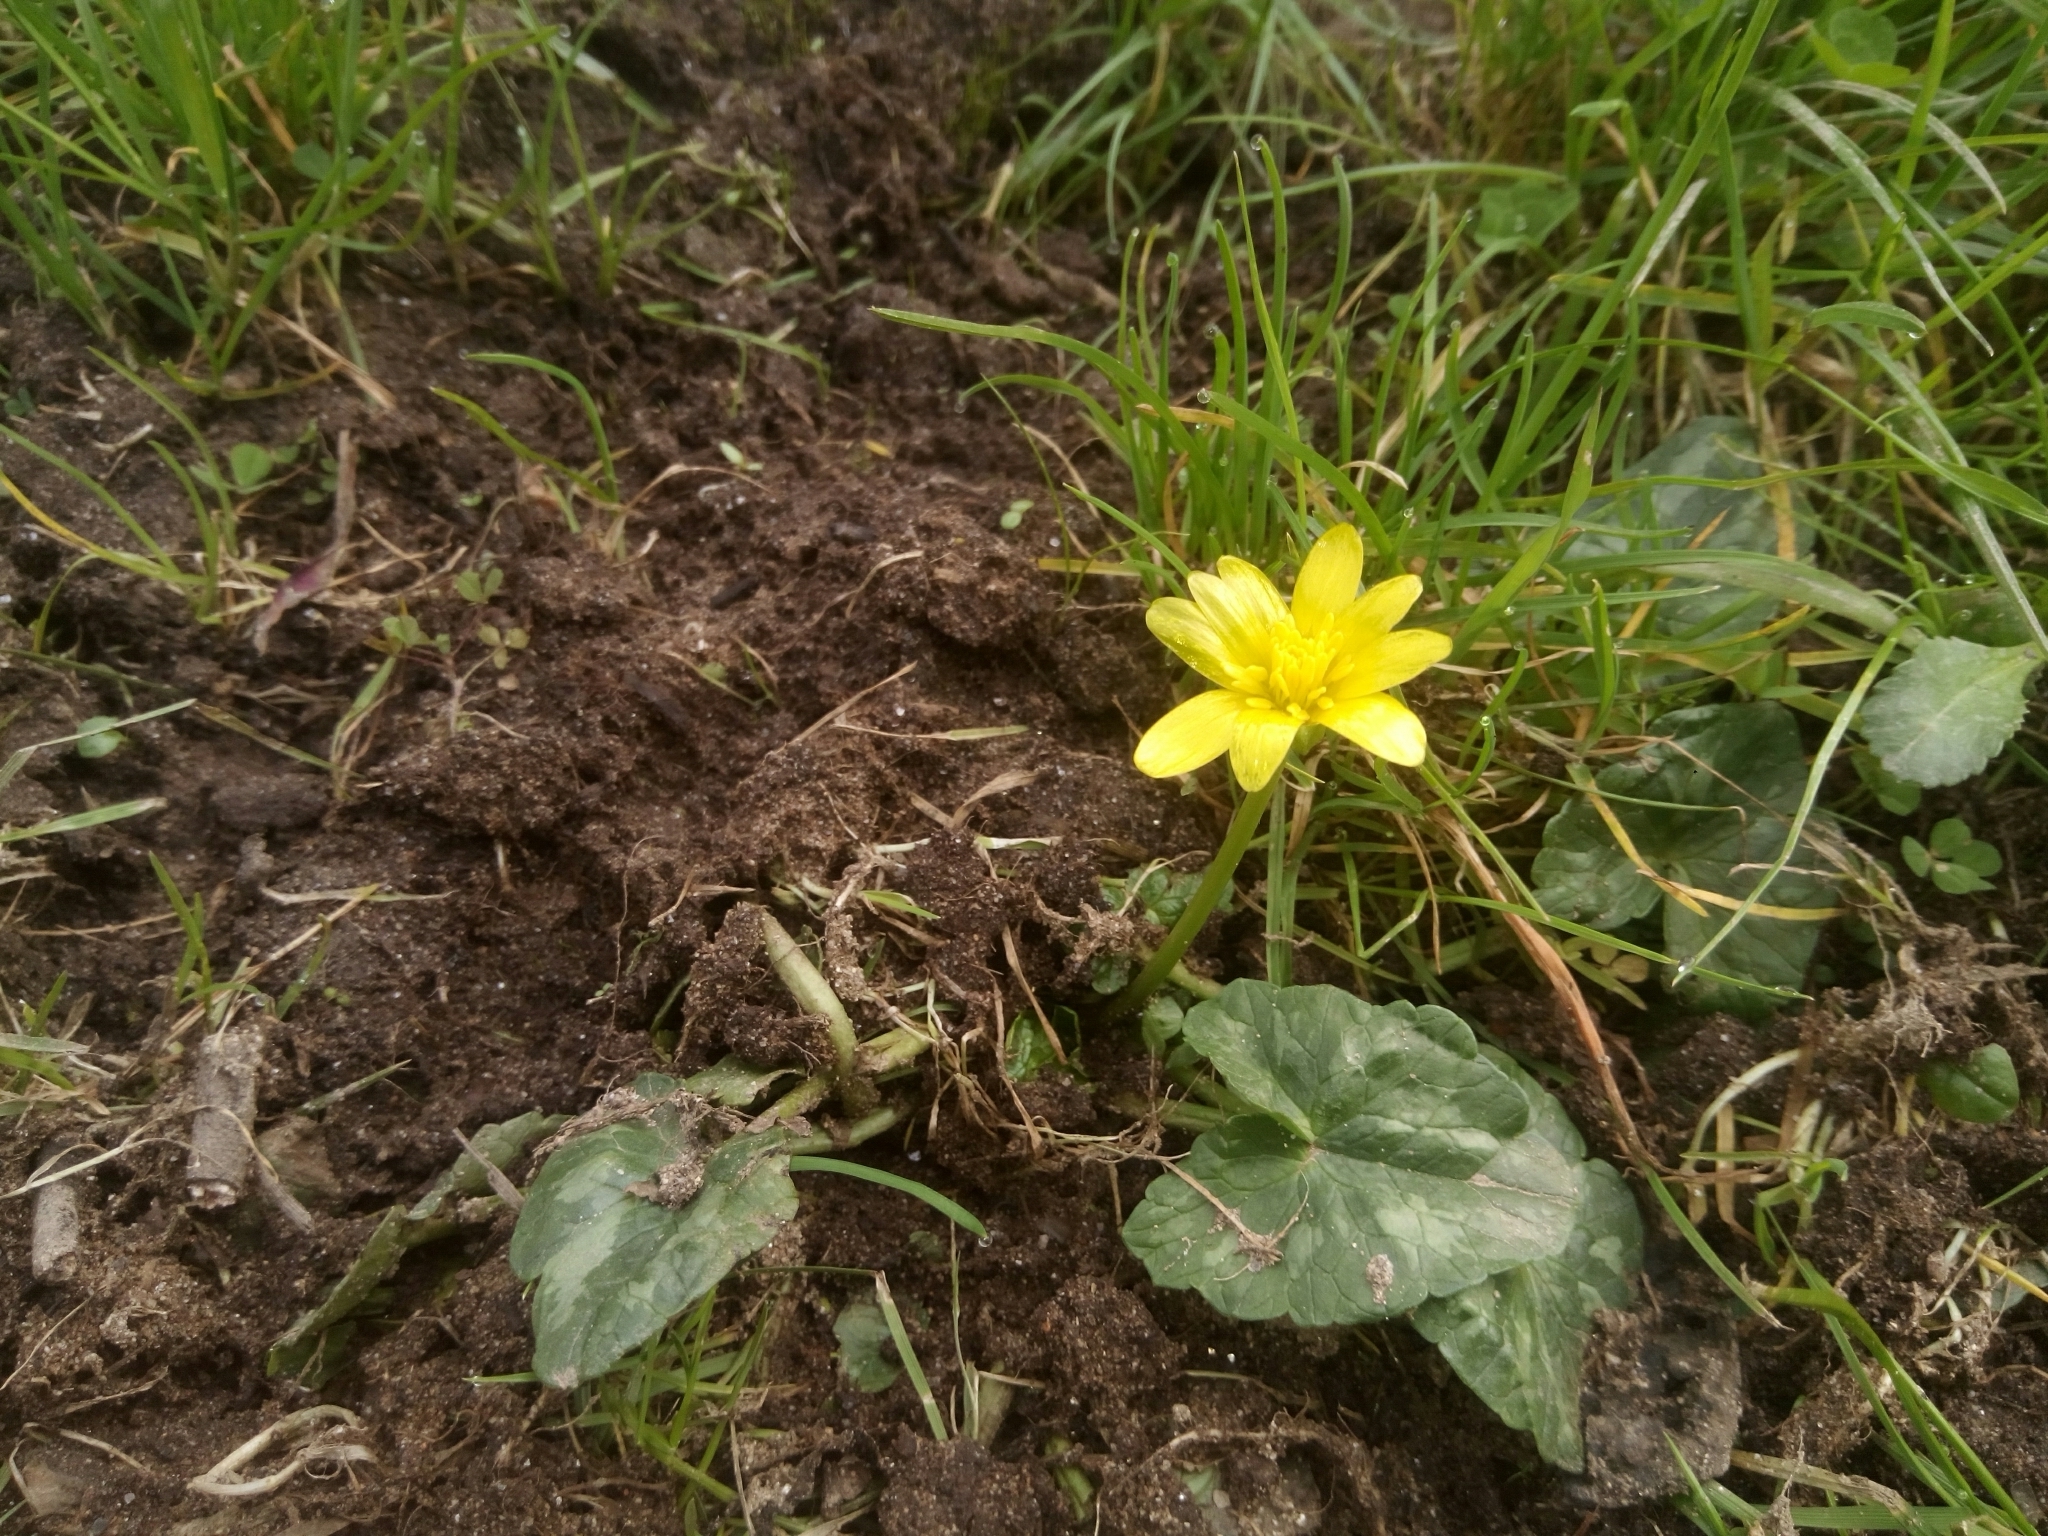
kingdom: Plantae
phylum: Tracheophyta
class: Magnoliopsida
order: Ranunculales
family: Ranunculaceae
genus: Ficaria
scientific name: Ficaria verna
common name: Lesser celandine
